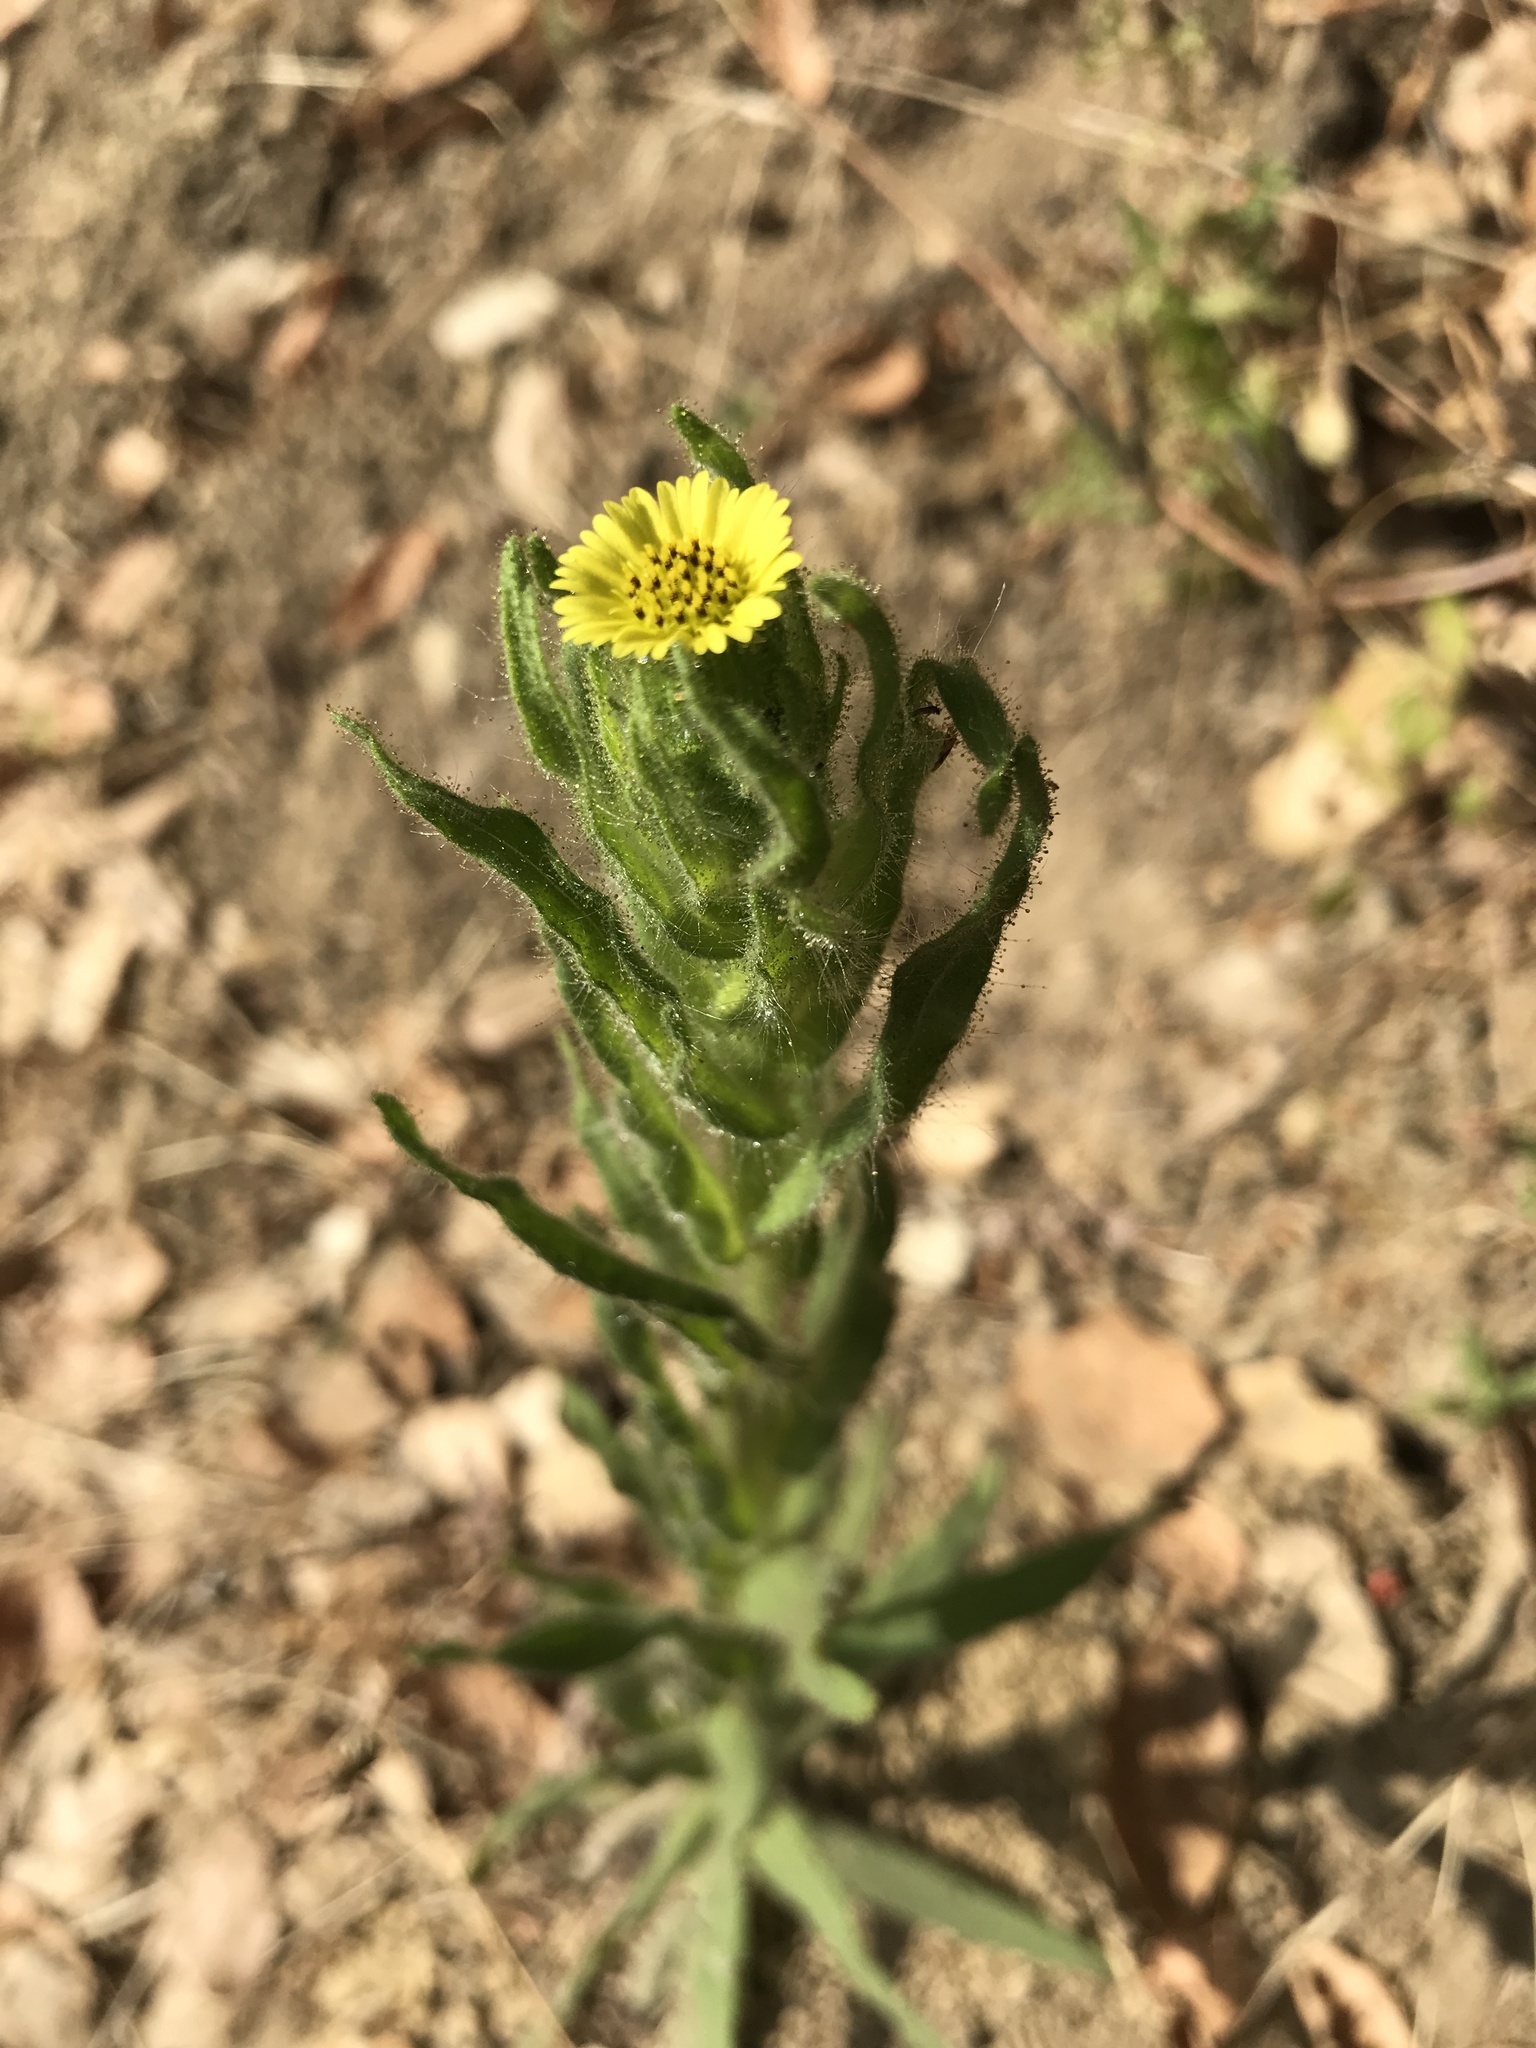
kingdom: Plantae
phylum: Tracheophyta
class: Magnoliopsida
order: Asterales
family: Asteraceae
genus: Madia
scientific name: Madia sativa
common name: Coast tarweed
